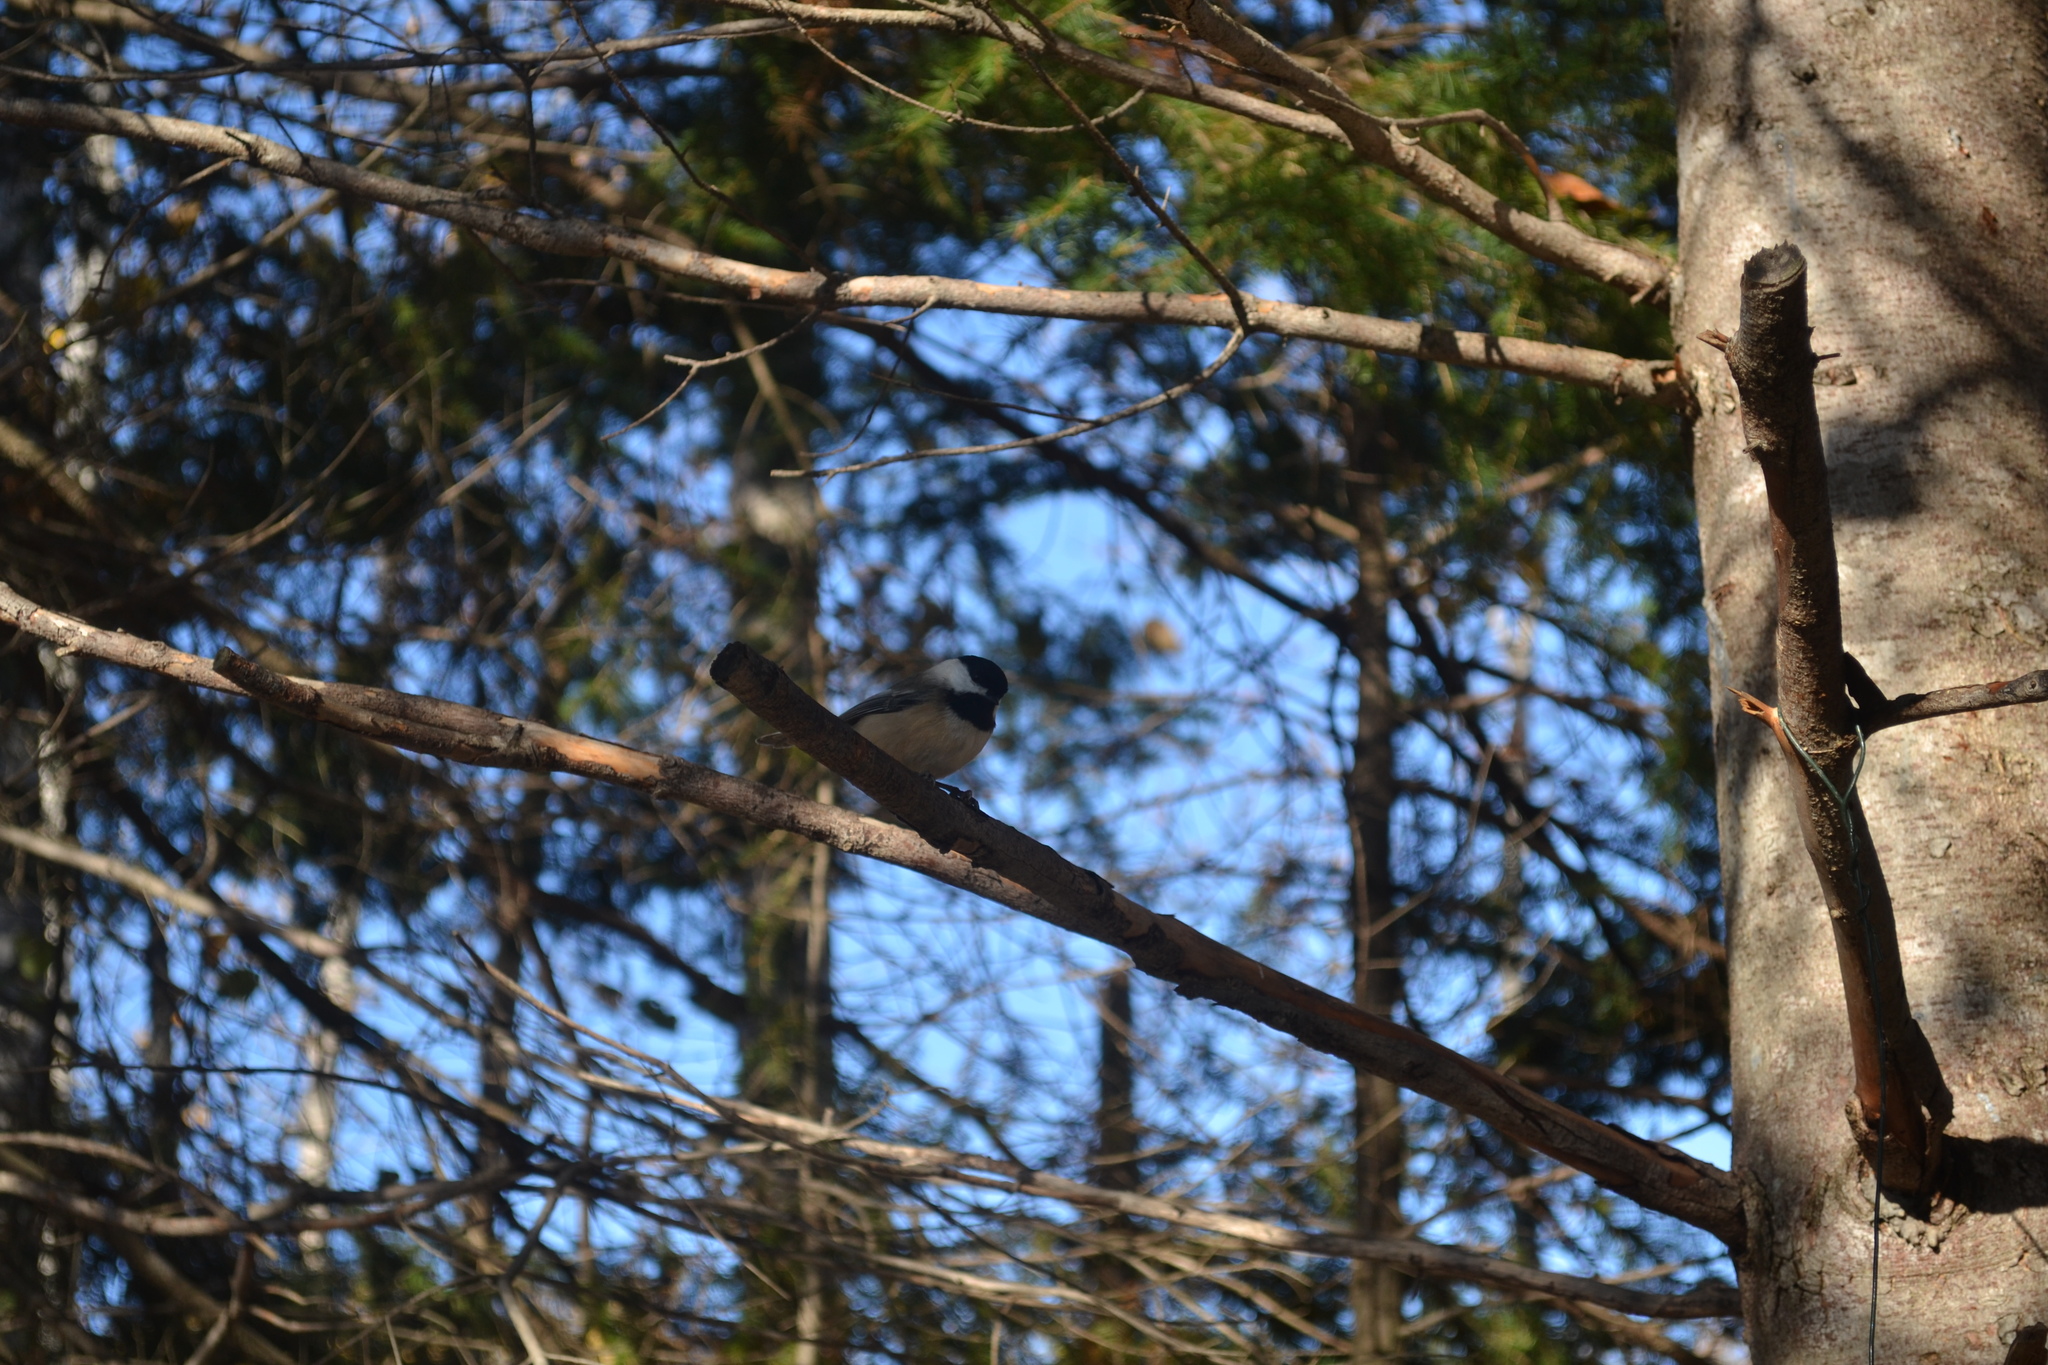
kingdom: Animalia
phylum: Chordata
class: Aves
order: Passeriformes
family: Paridae
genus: Poecile
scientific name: Poecile atricapillus
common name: Black-capped chickadee
